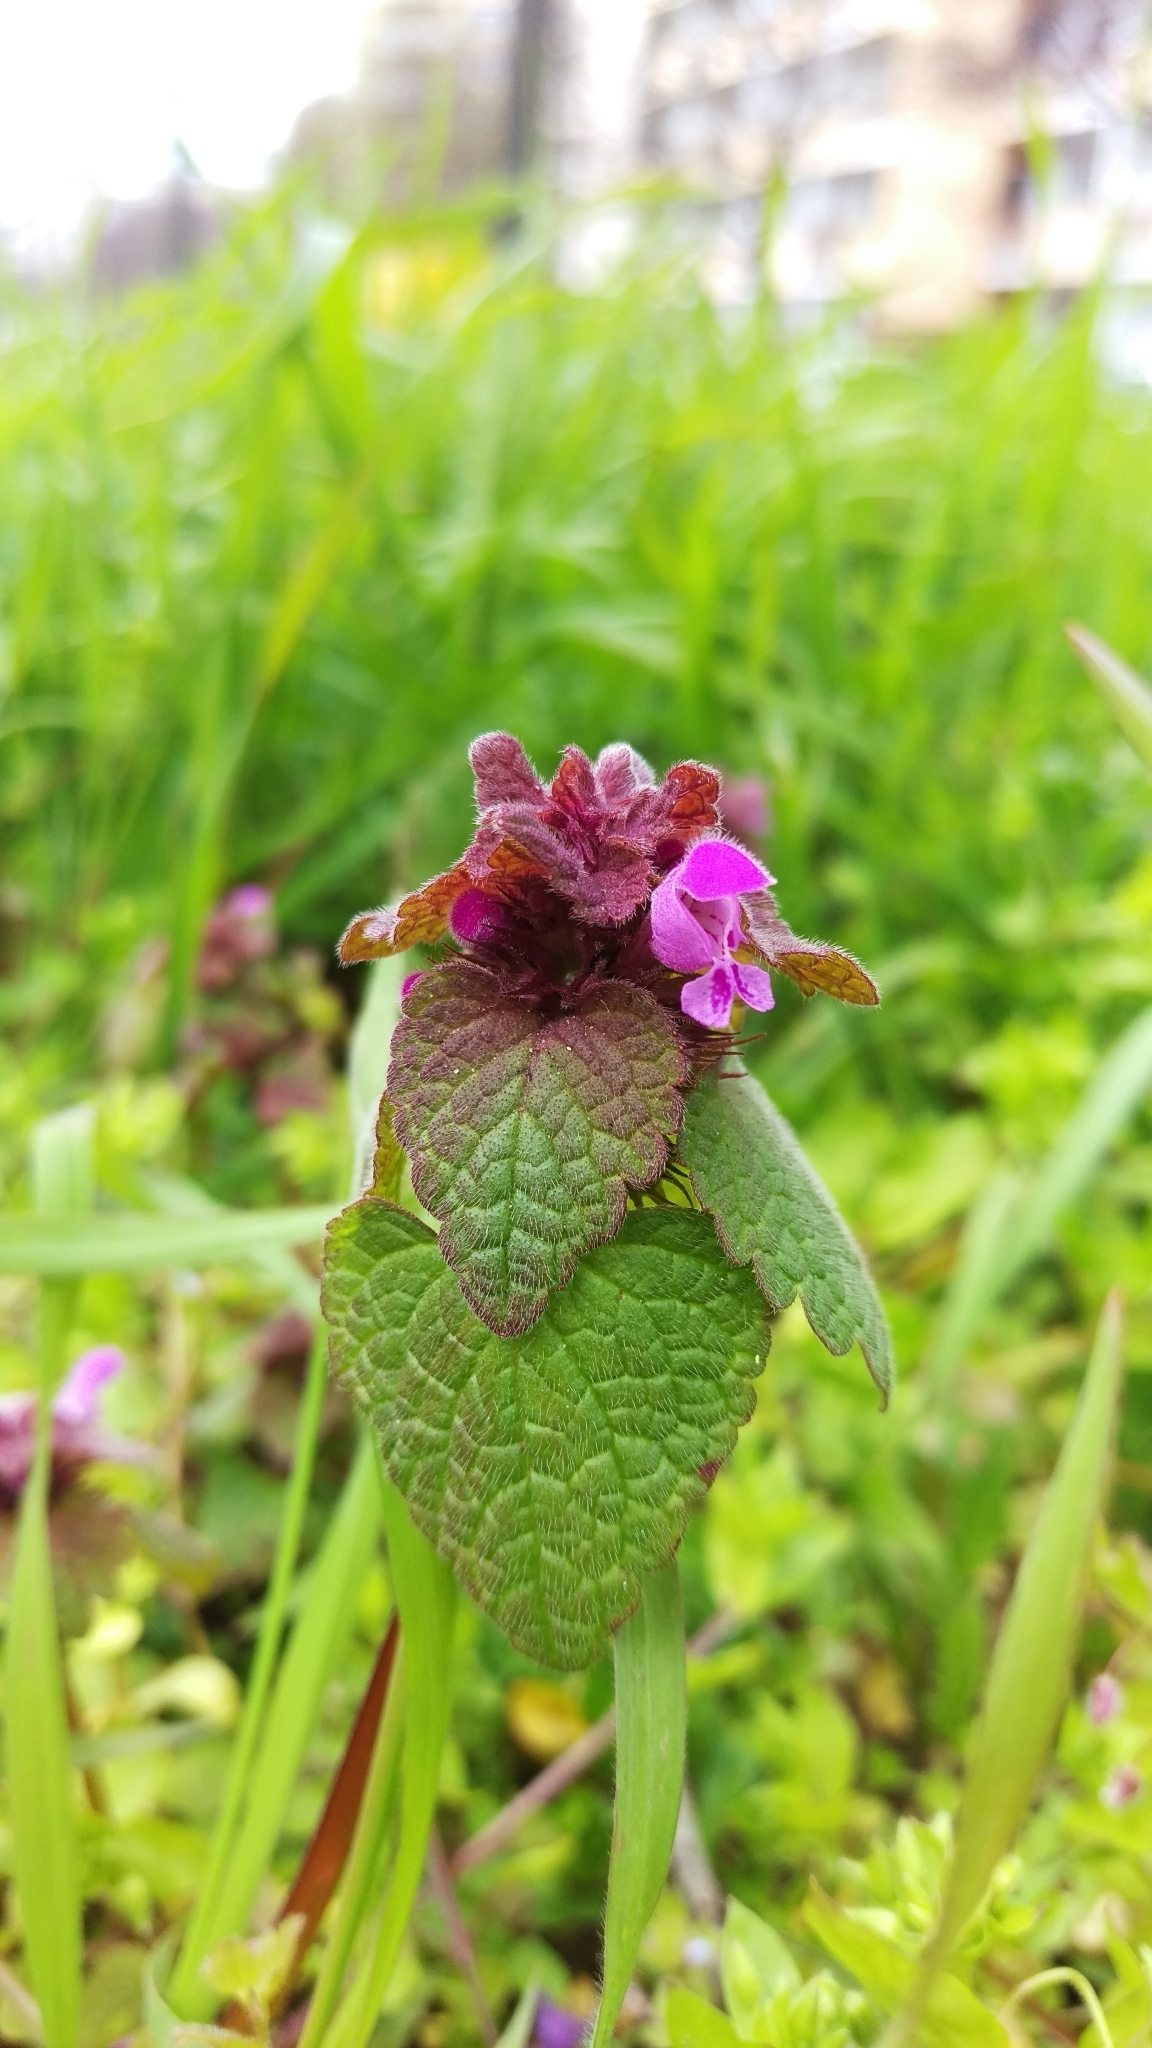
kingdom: Plantae
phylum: Tracheophyta
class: Magnoliopsida
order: Lamiales
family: Lamiaceae
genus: Lamium
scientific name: Lamium purpureum
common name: Red dead-nettle
